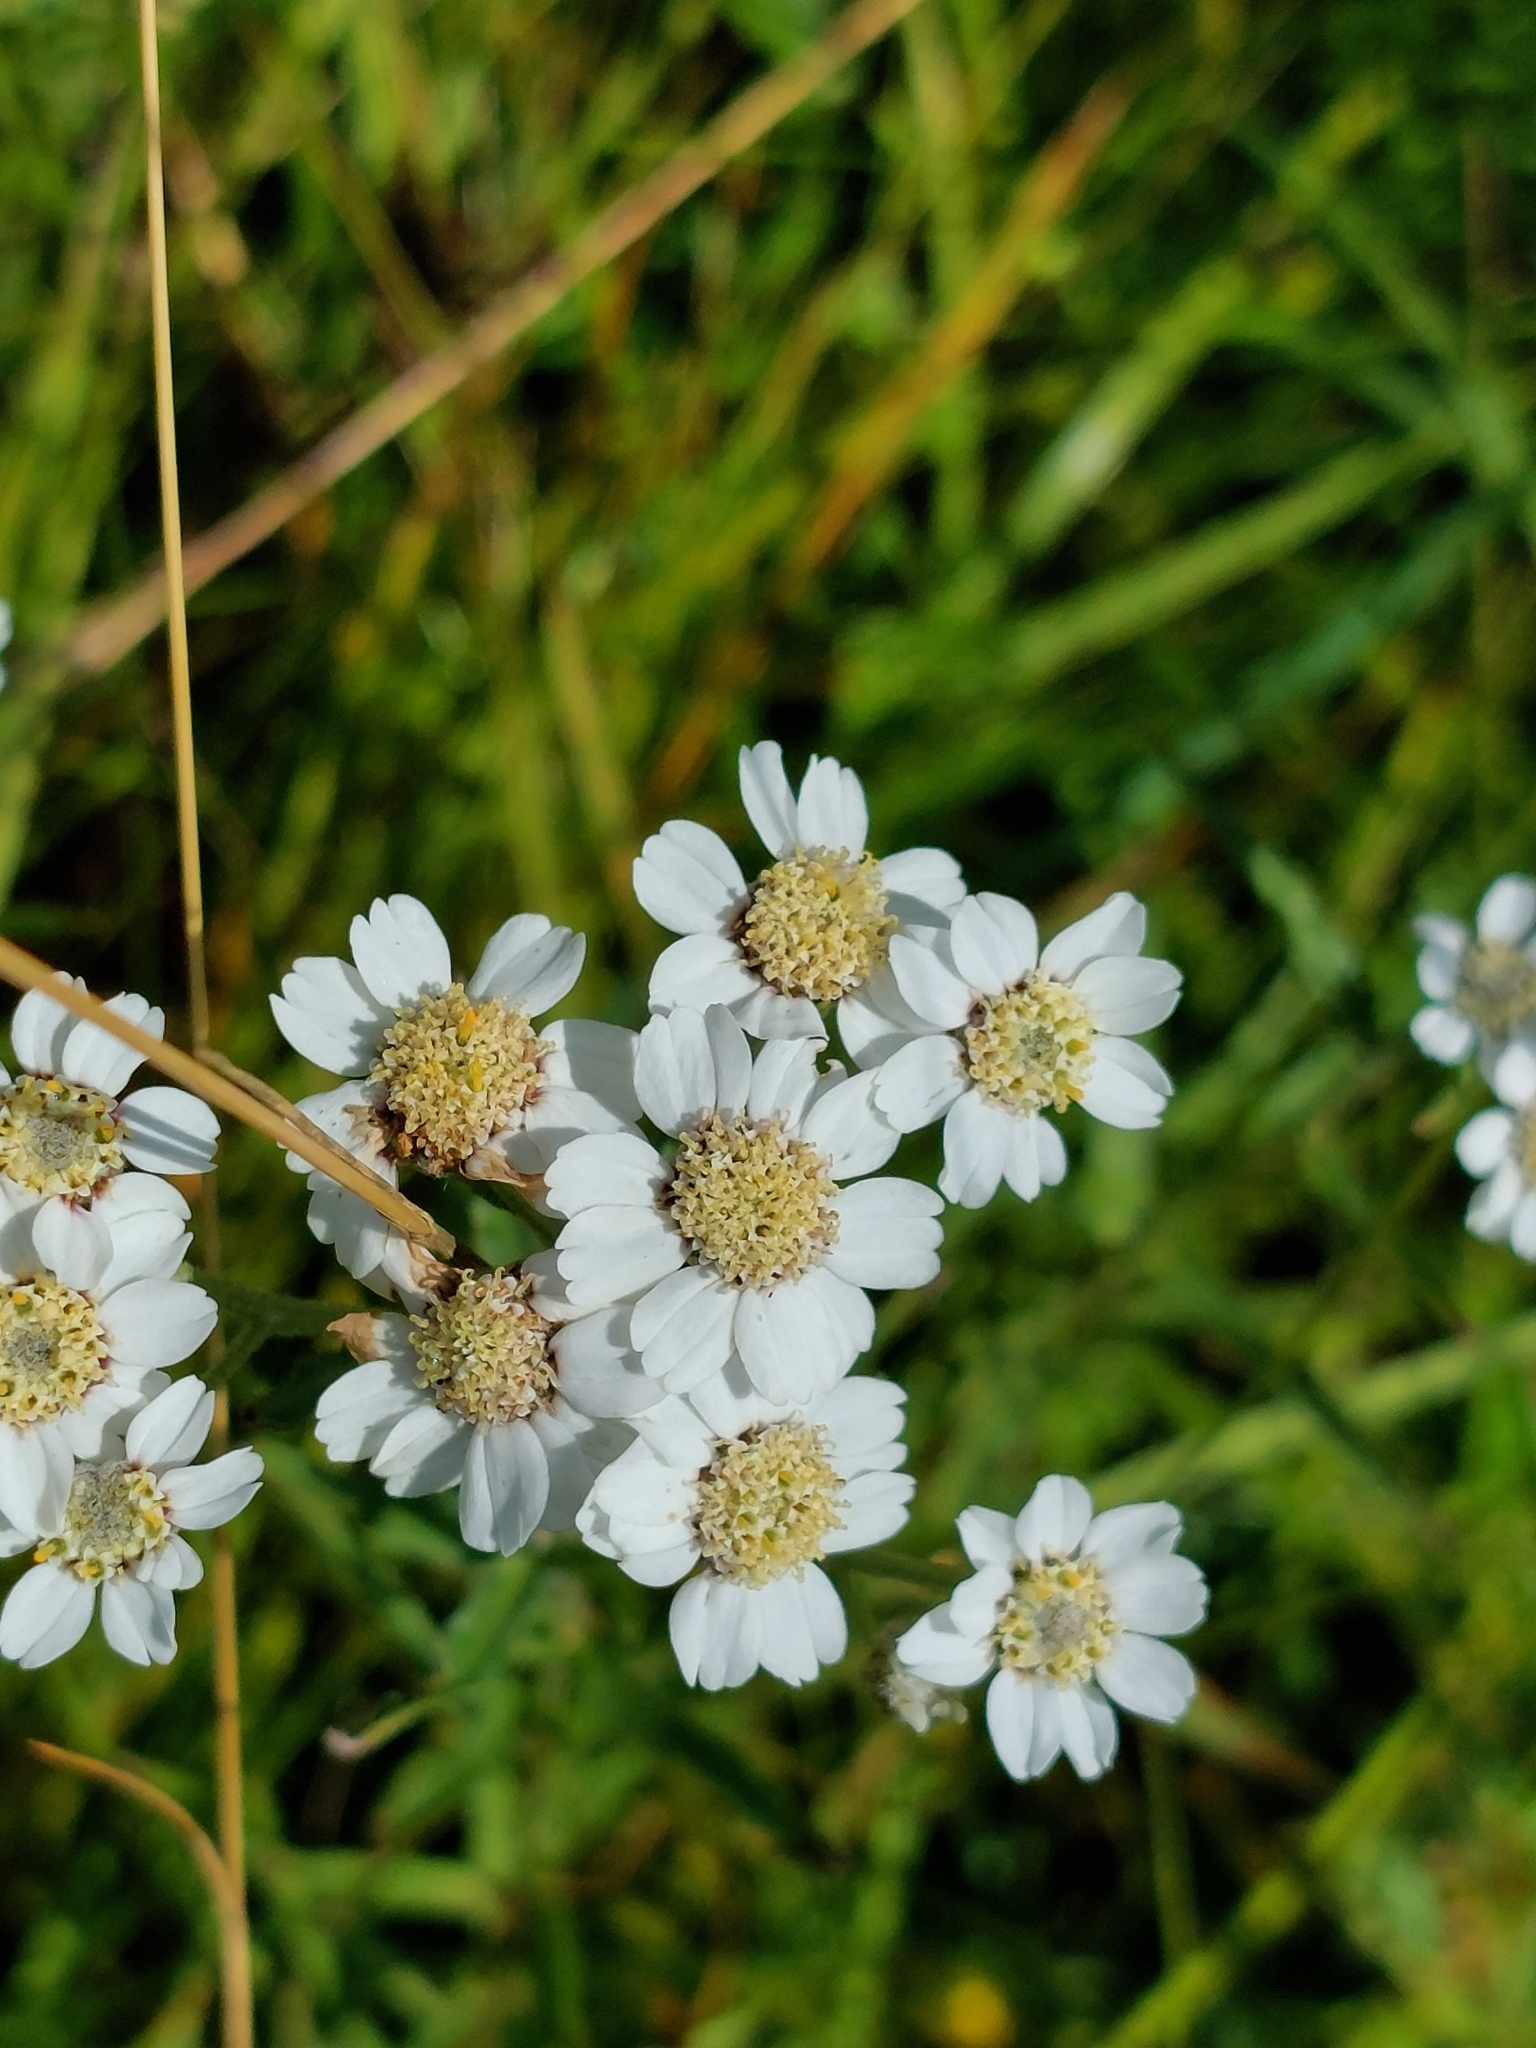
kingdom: Plantae
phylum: Tracheophyta
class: Magnoliopsida
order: Asterales
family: Asteraceae
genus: Achillea
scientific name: Achillea ptarmica
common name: Sneezeweed
